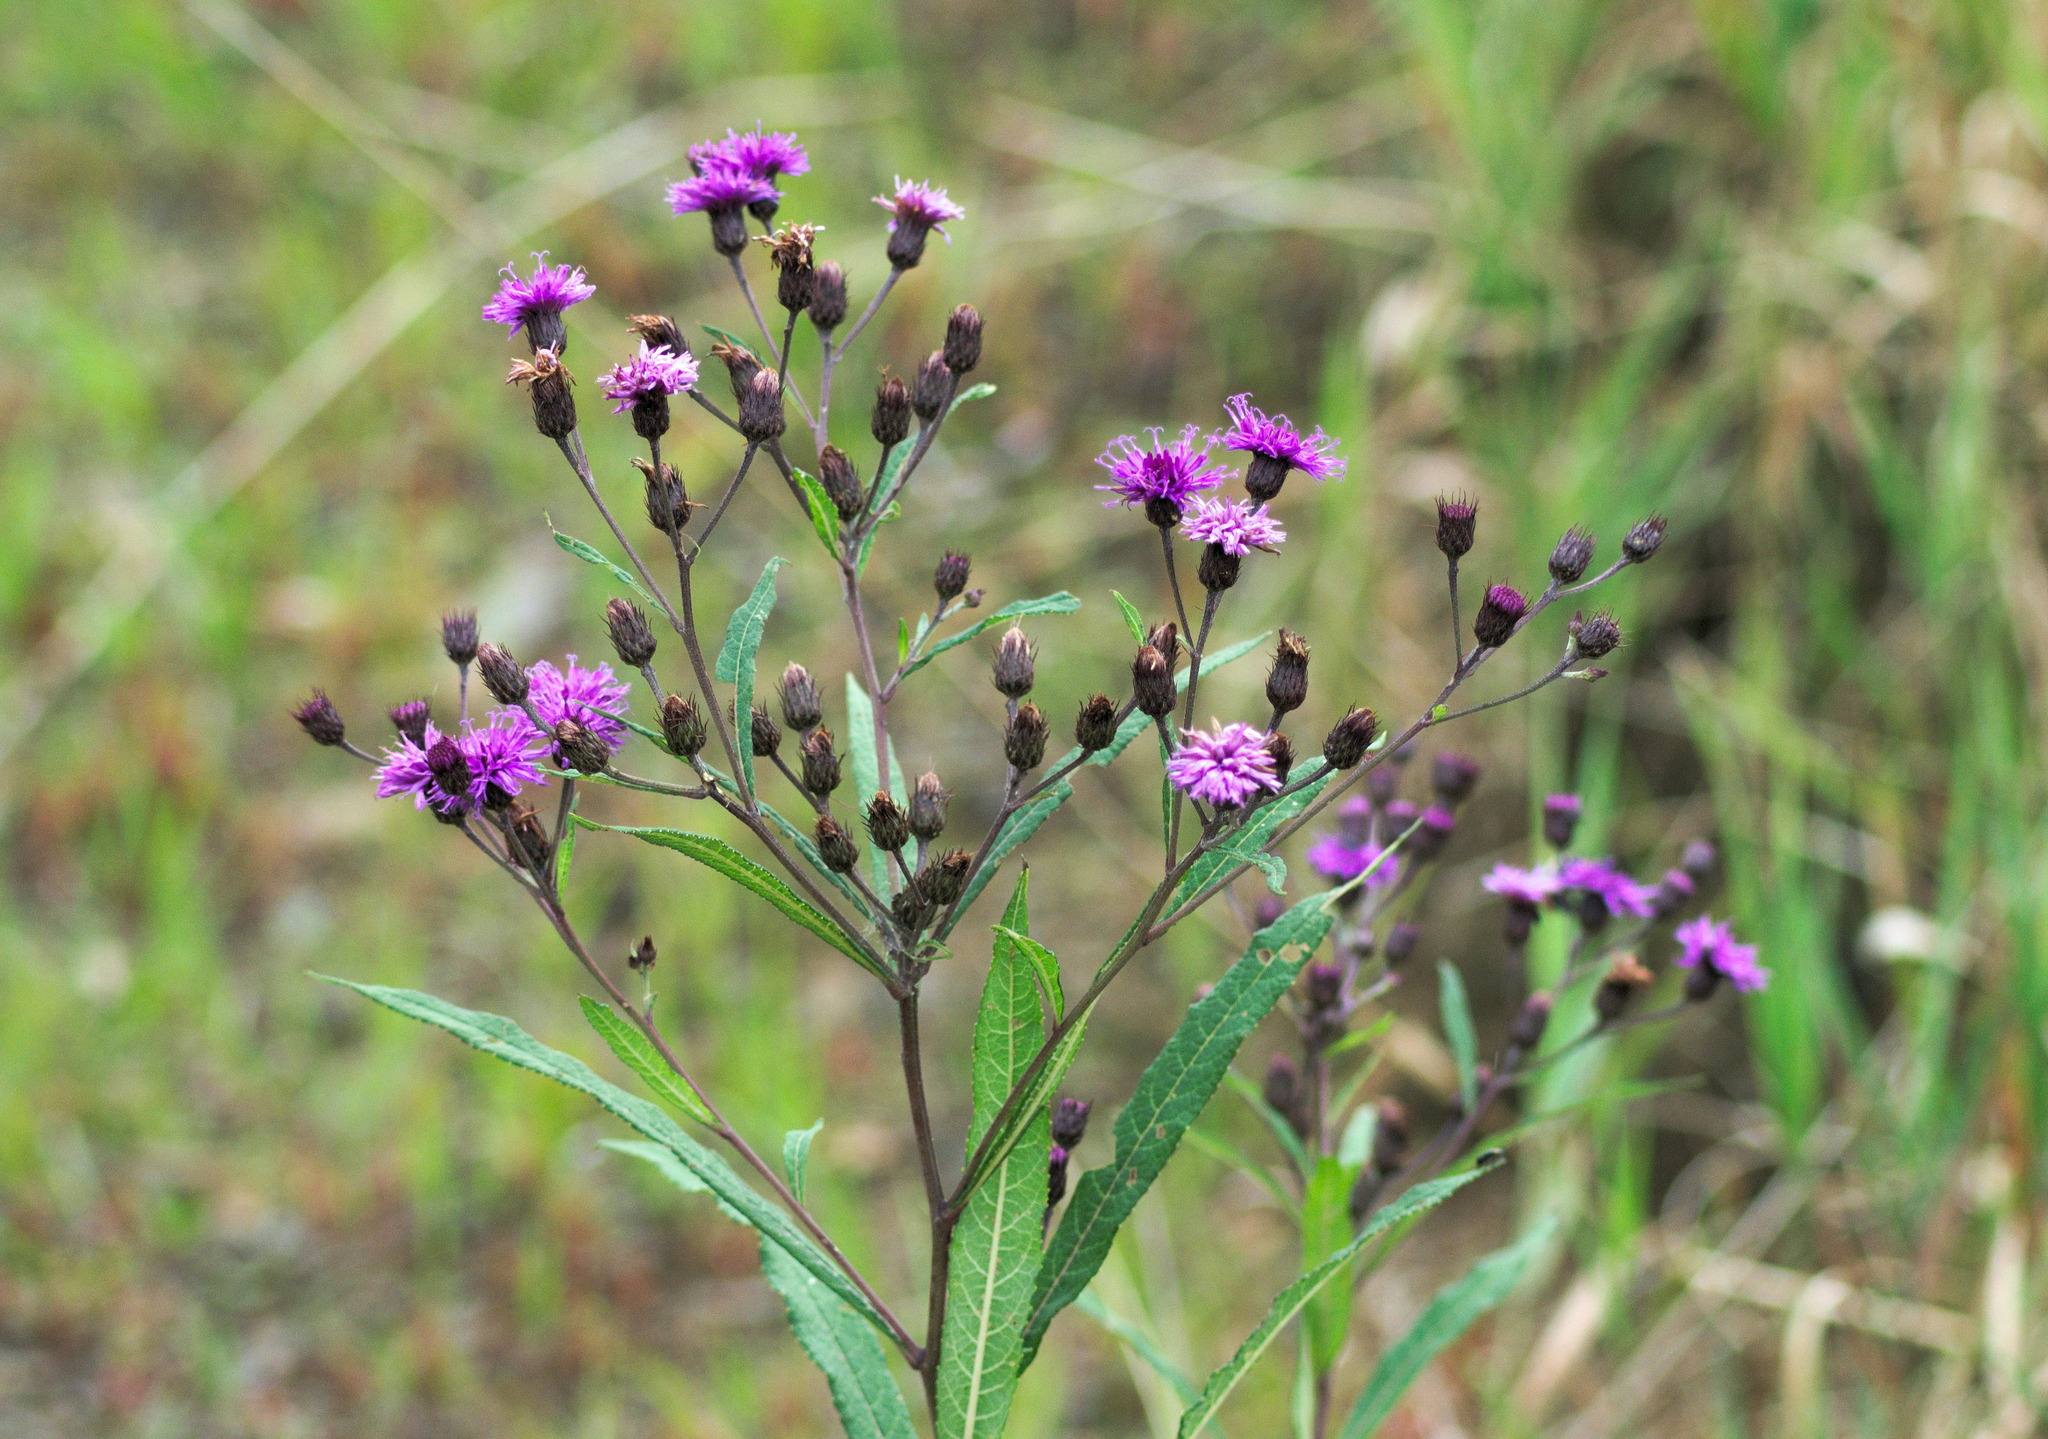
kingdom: Plantae
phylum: Tracheophyta
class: Magnoliopsida
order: Asterales
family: Asteraceae
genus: Vernonia
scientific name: Vernonia noveboracensis
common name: New york ironweed
